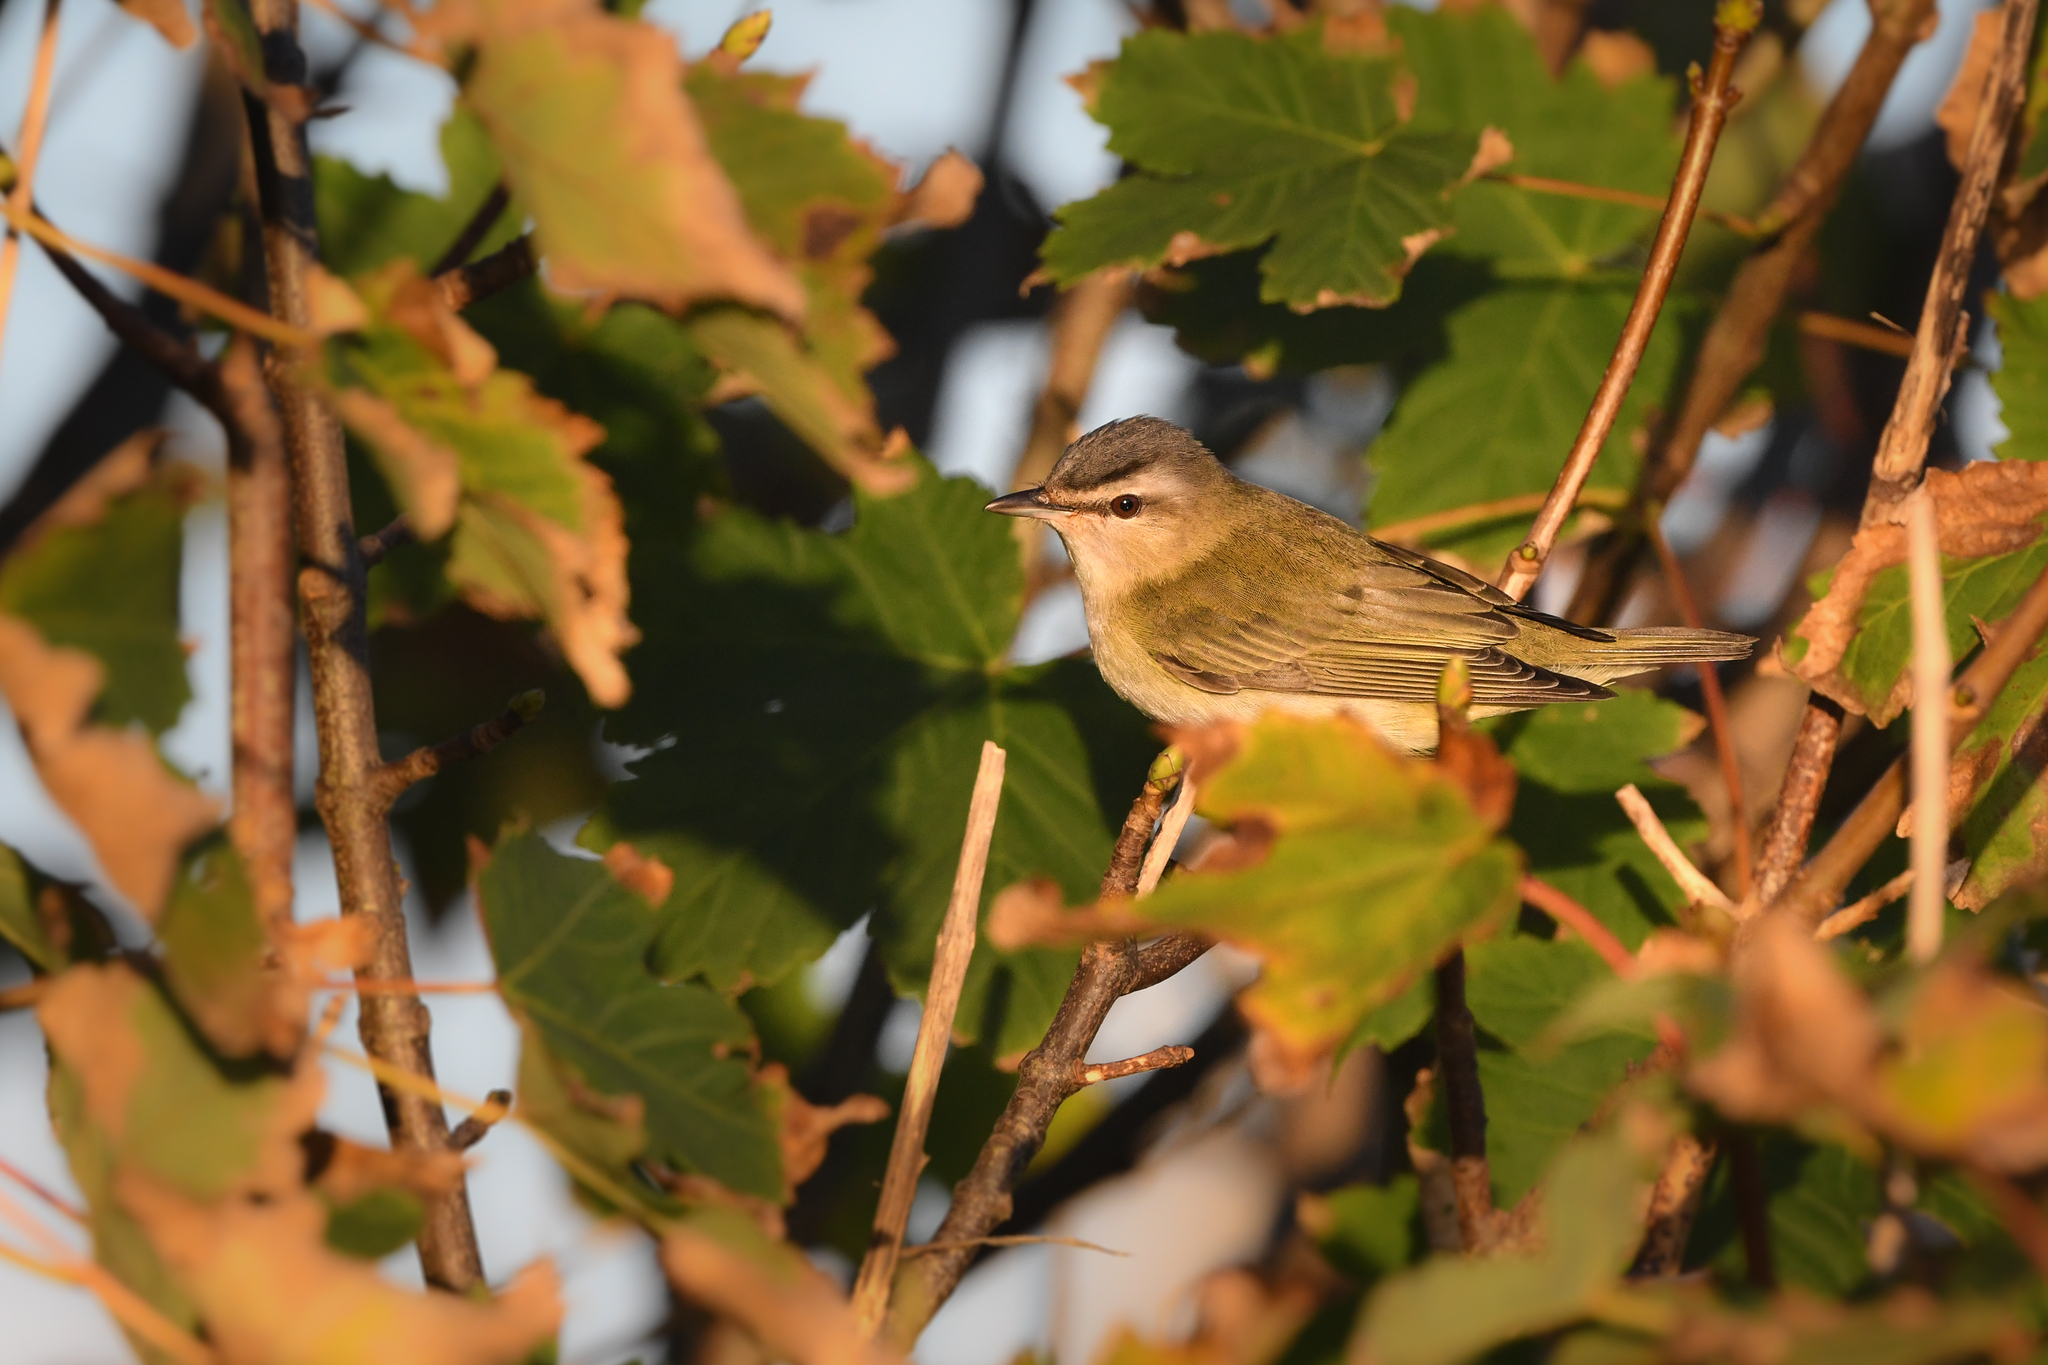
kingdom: Animalia
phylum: Chordata
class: Aves
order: Passeriformes
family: Vireonidae
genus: Vireo
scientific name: Vireo olivaceus
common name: Red-eyed vireo
